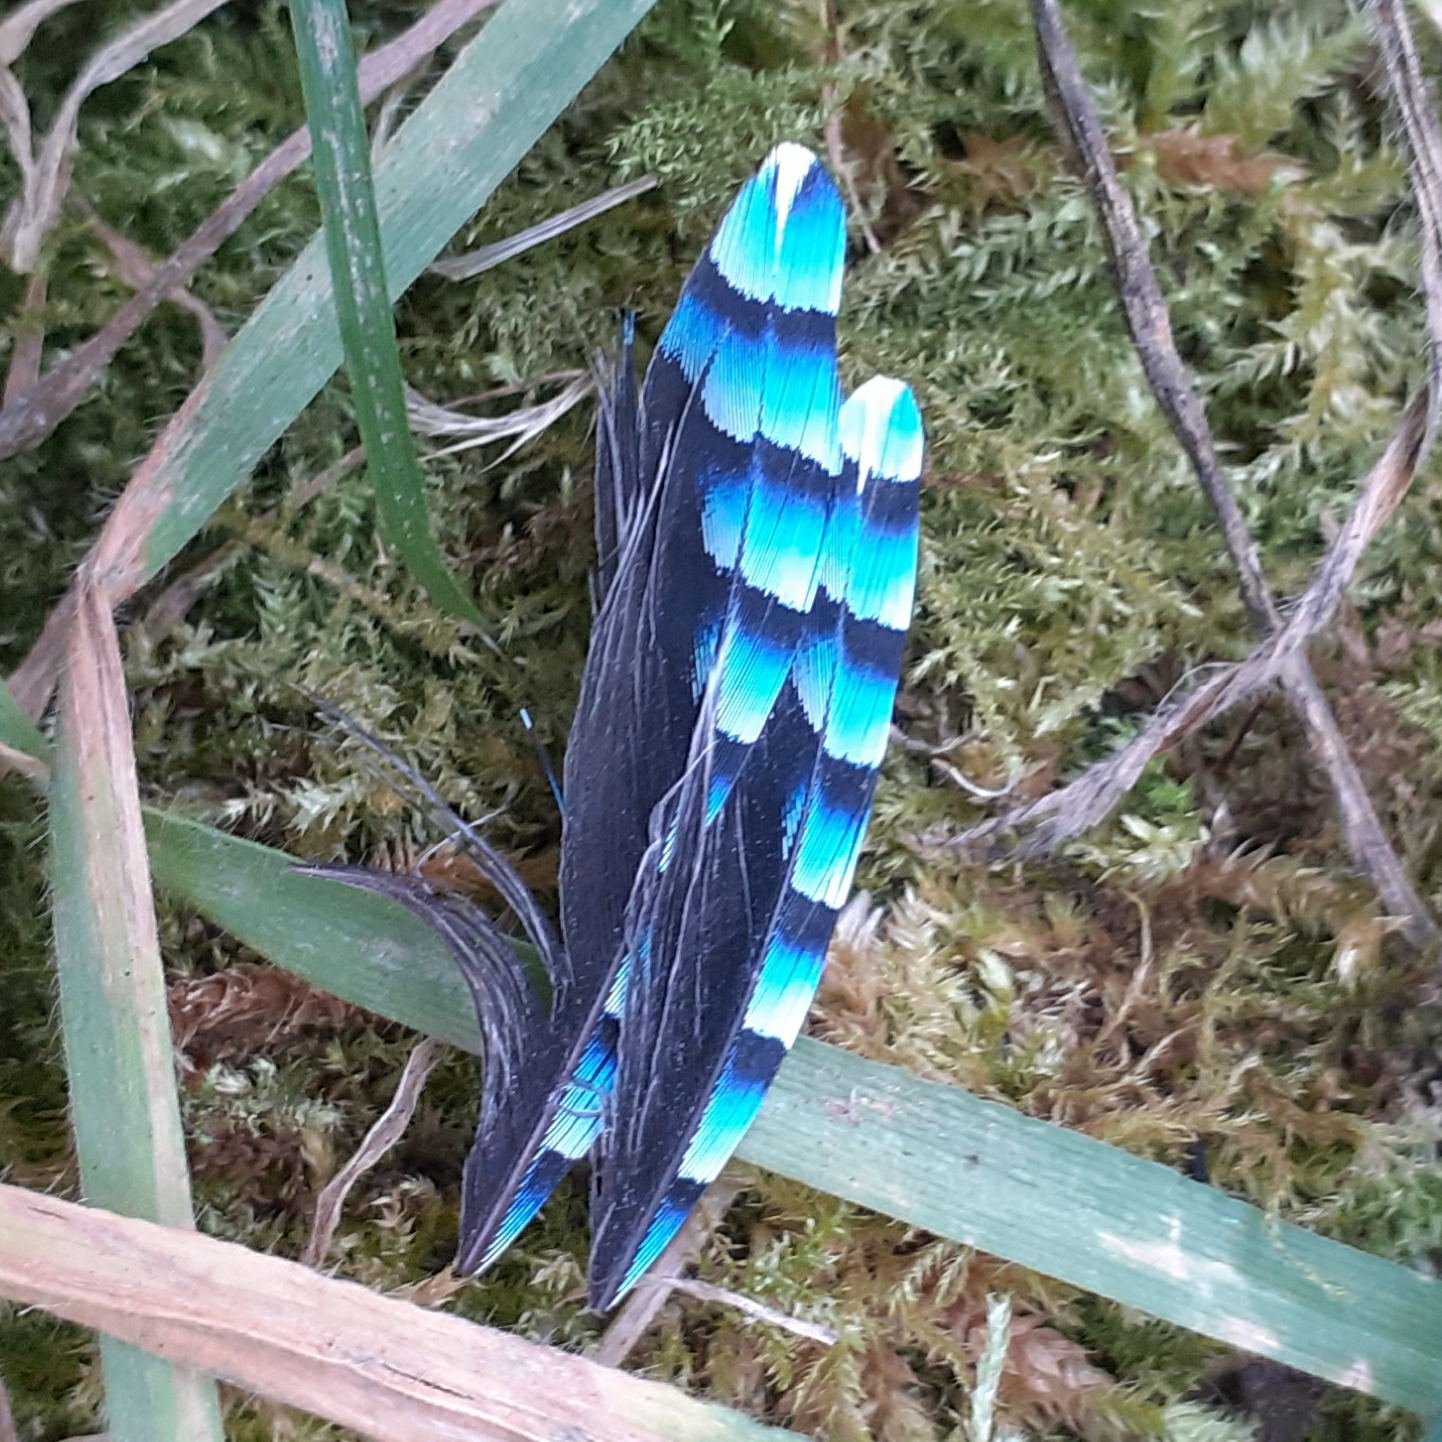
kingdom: Animalia
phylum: Chordata
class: Aves
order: Passeriformes
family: Corvidae
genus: Garrulus
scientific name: Garrulus glandarius
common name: Eurasian jay
